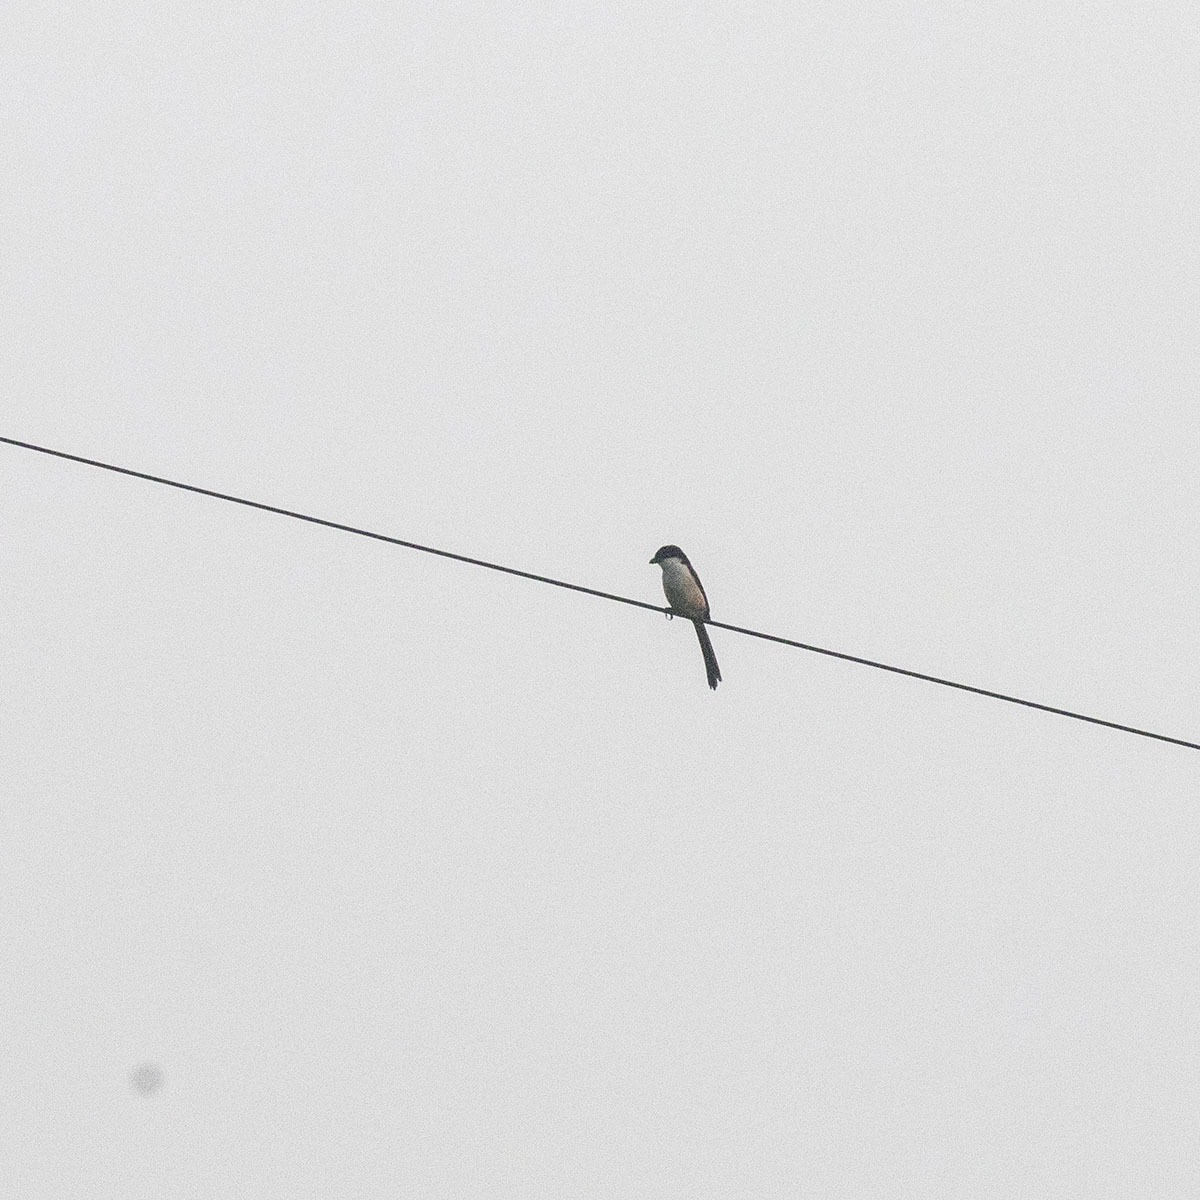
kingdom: Animalia
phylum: Chordata
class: Aves
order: Passeriformes
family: Laniidae
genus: Lanius
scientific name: Lanius schach
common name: Long-tailed shrike
